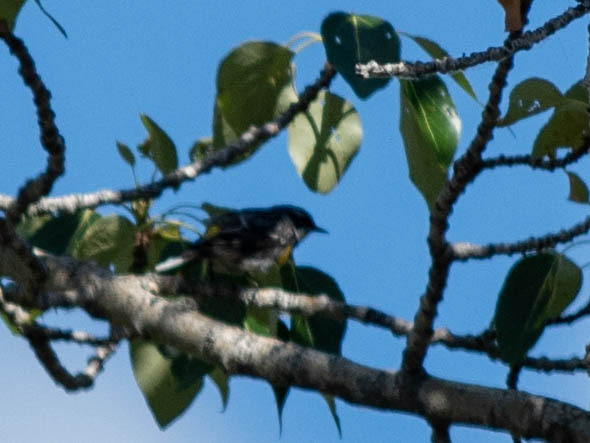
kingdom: Animalia
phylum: Chordata
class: Aves
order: Passeriformes
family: Parulidae
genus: Setophaga
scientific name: Setophaga coronata
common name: Myrtle warbler
